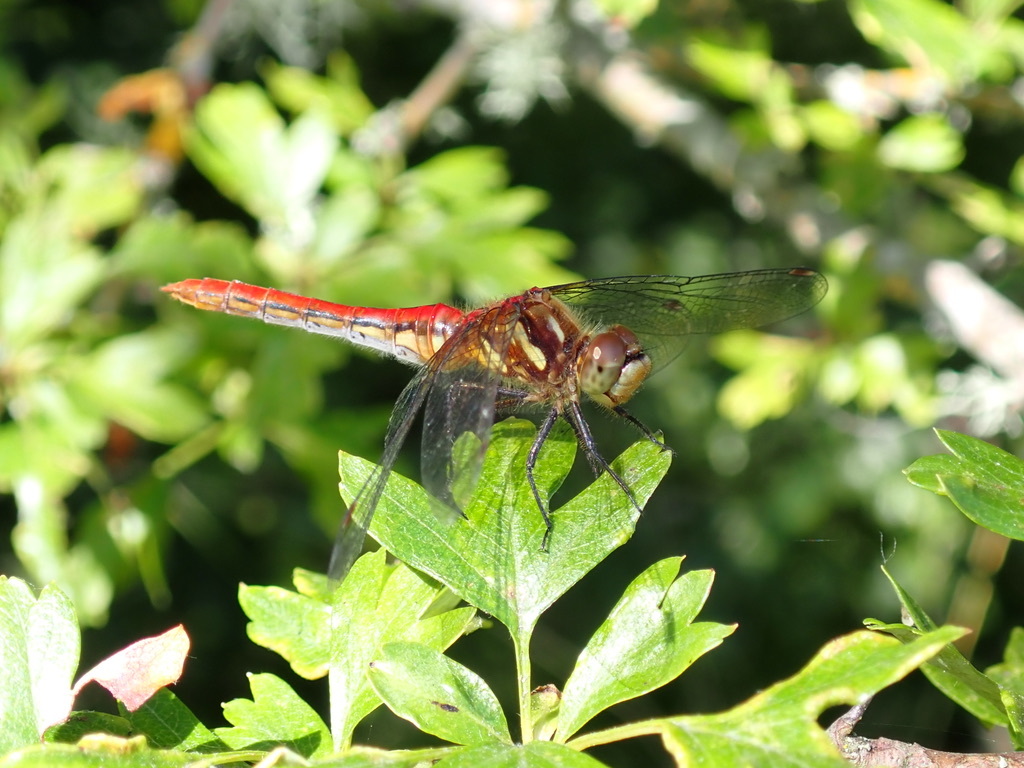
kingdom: Animalia
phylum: Arthropoda
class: Insecta
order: Odonata
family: Libellulidae
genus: Sympetrum
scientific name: Sympetrum pallipes
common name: Striped meadowhawk
